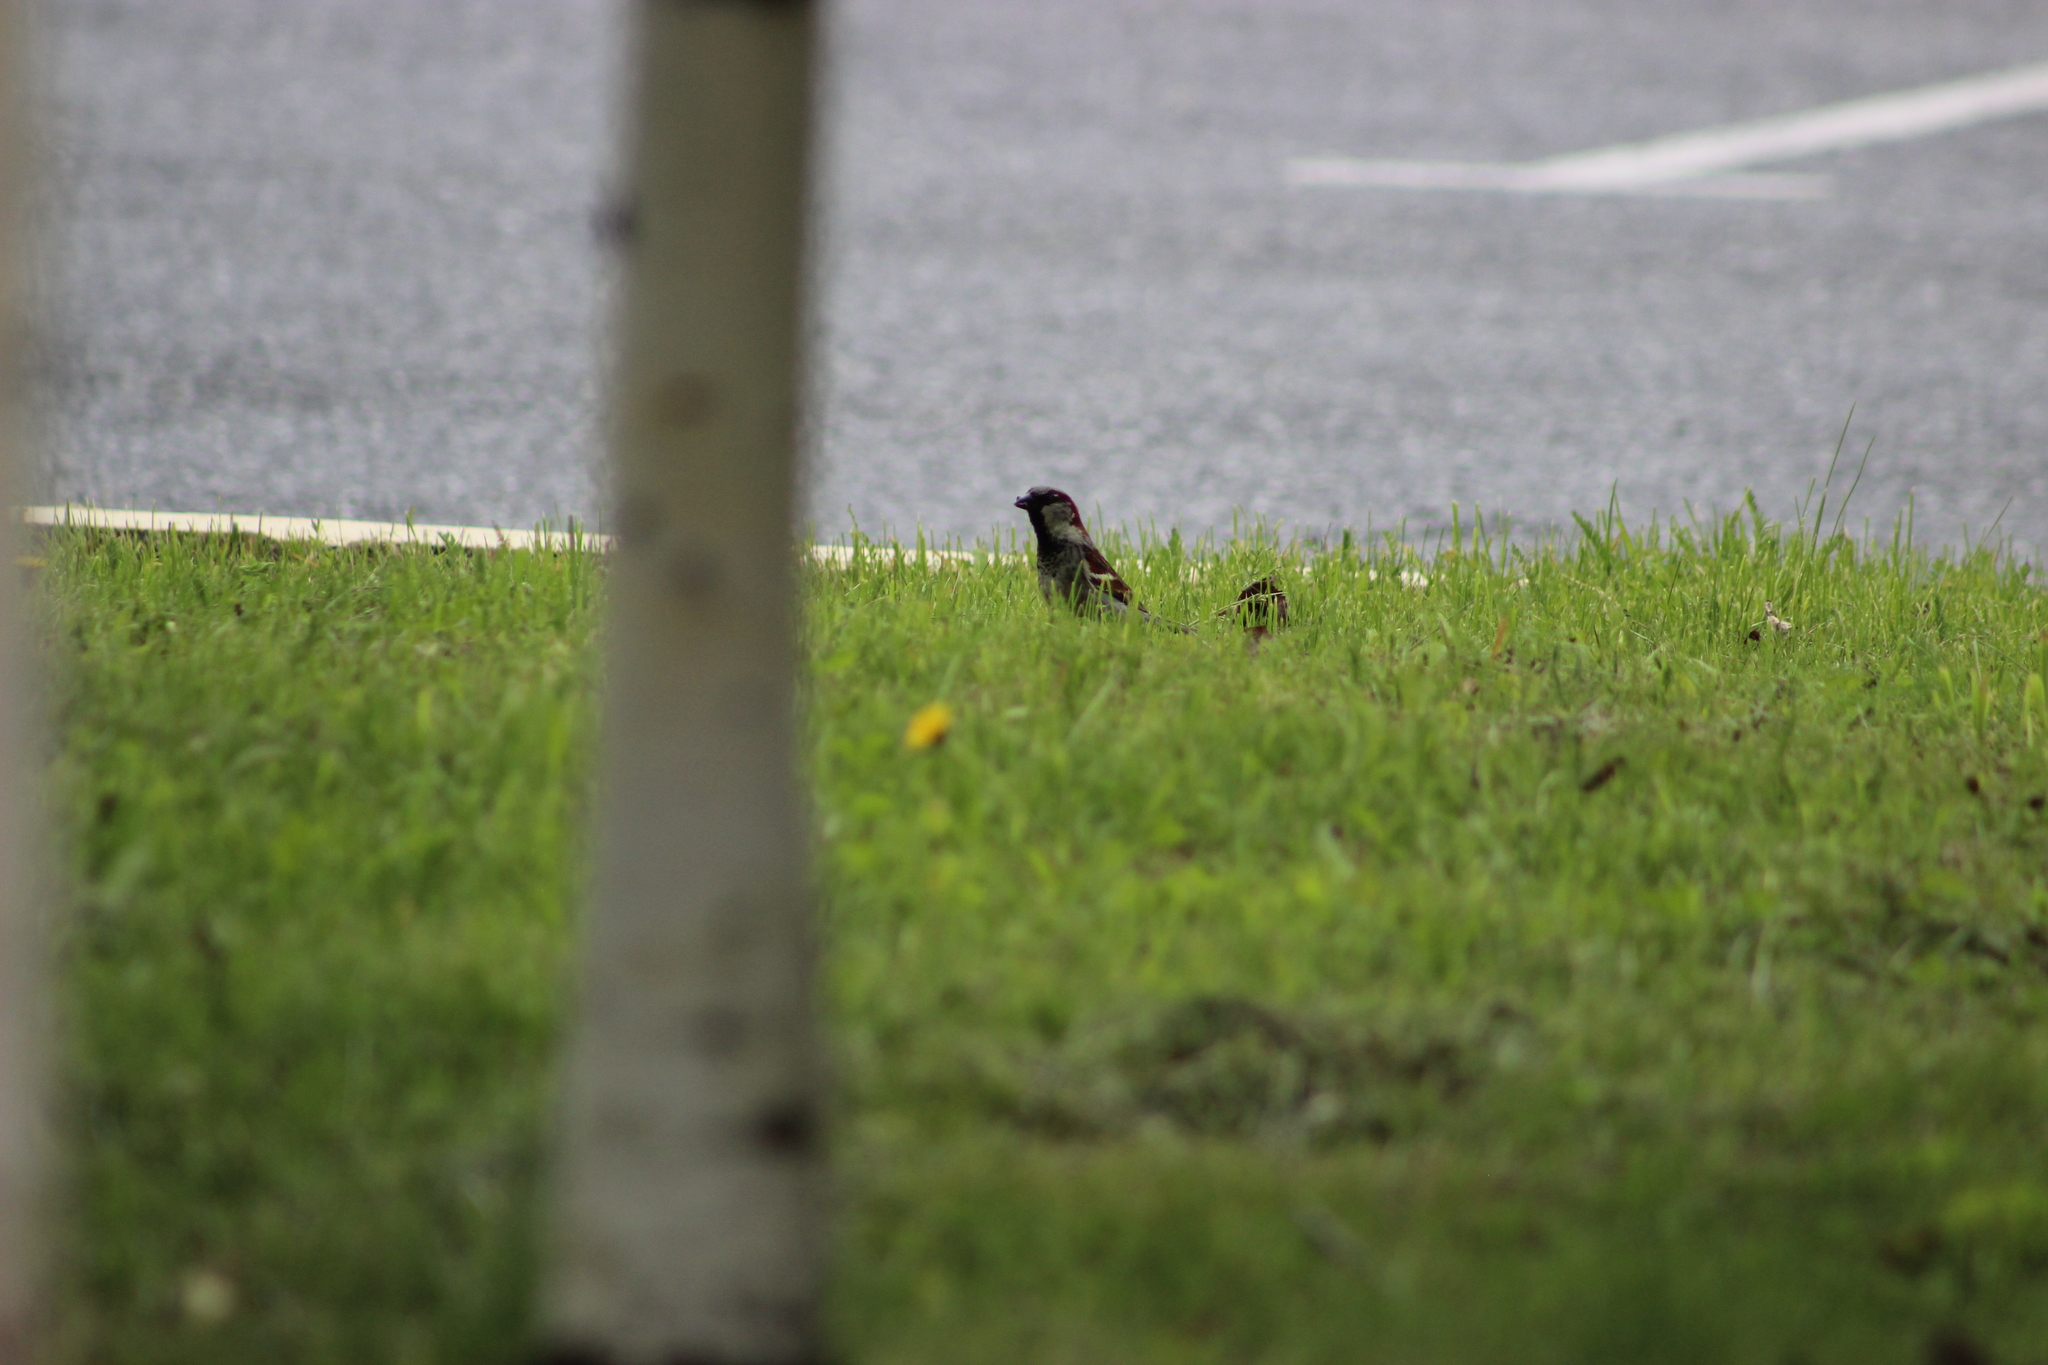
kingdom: Animalia
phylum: Chordata
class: Aves
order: Passeriformes
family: Passeridae
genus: Passer
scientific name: Passer domesticus
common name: House sparrow
